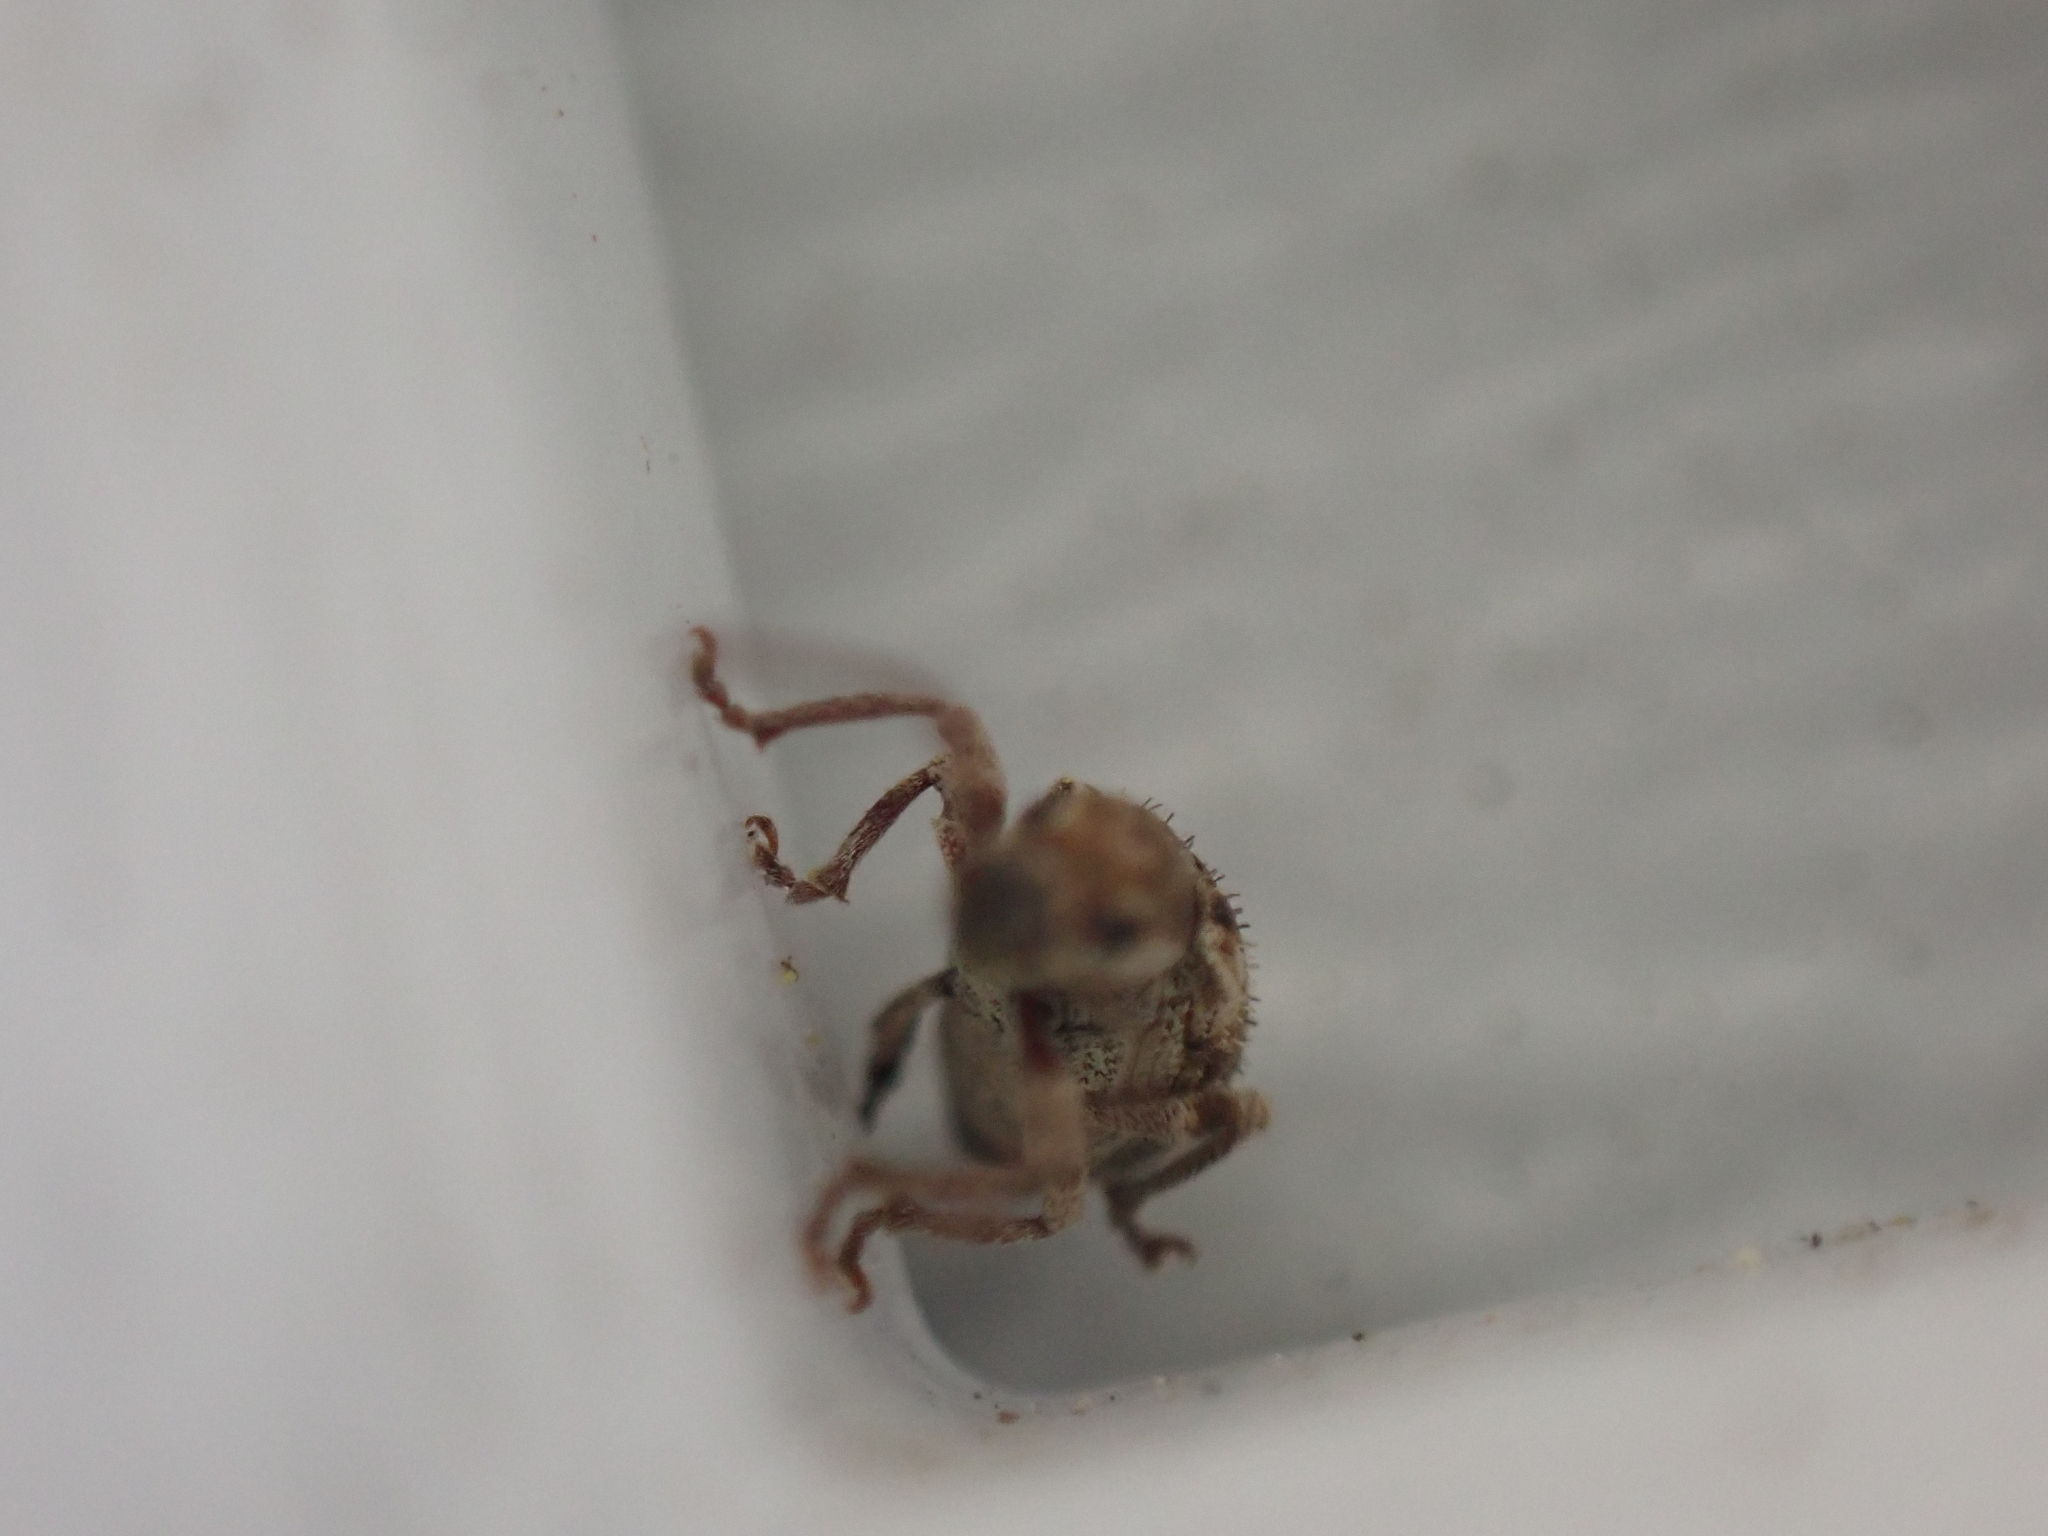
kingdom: Animalia
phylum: Arthropoda
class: Insecta
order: Coleoptera
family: Curculionidae
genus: Pseudoedophrys
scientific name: Pseudoedophrys hilleri
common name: Weevil
